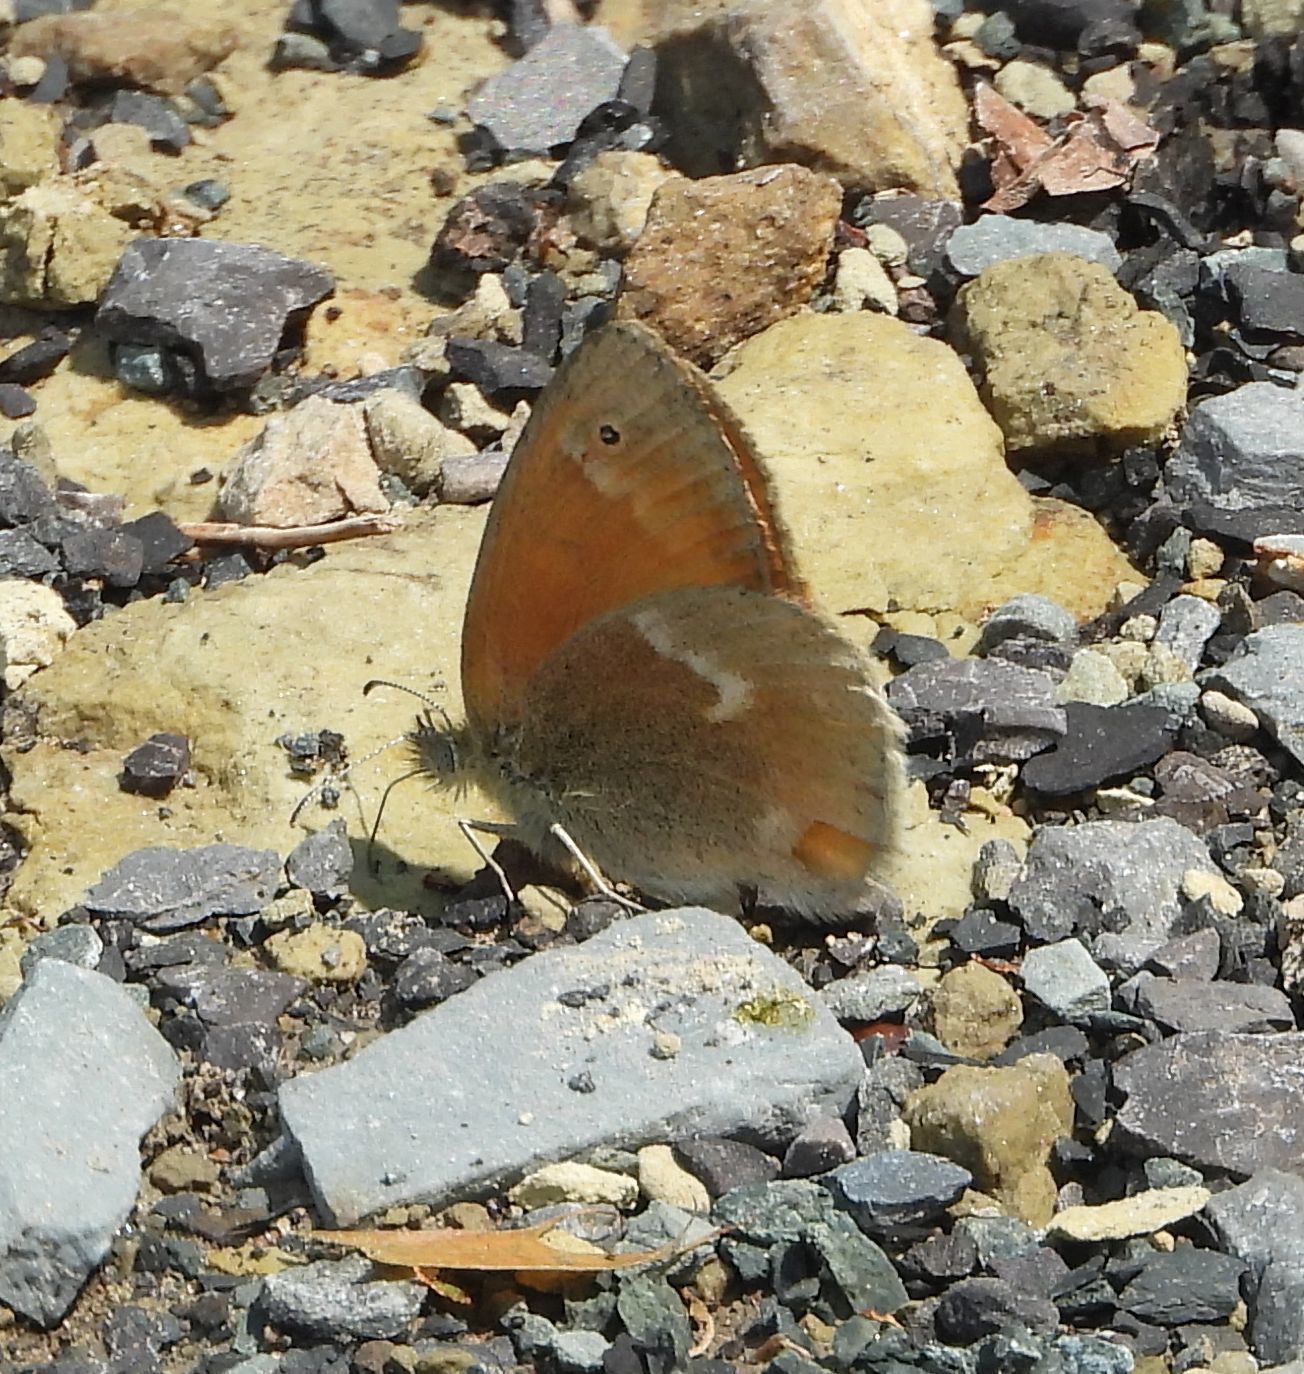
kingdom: Animalia
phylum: Arthropoda
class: Insecta
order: Lepidoptera
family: Nymphalidae
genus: Coenonympha
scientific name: Coenonympha california
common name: Common ringlet
